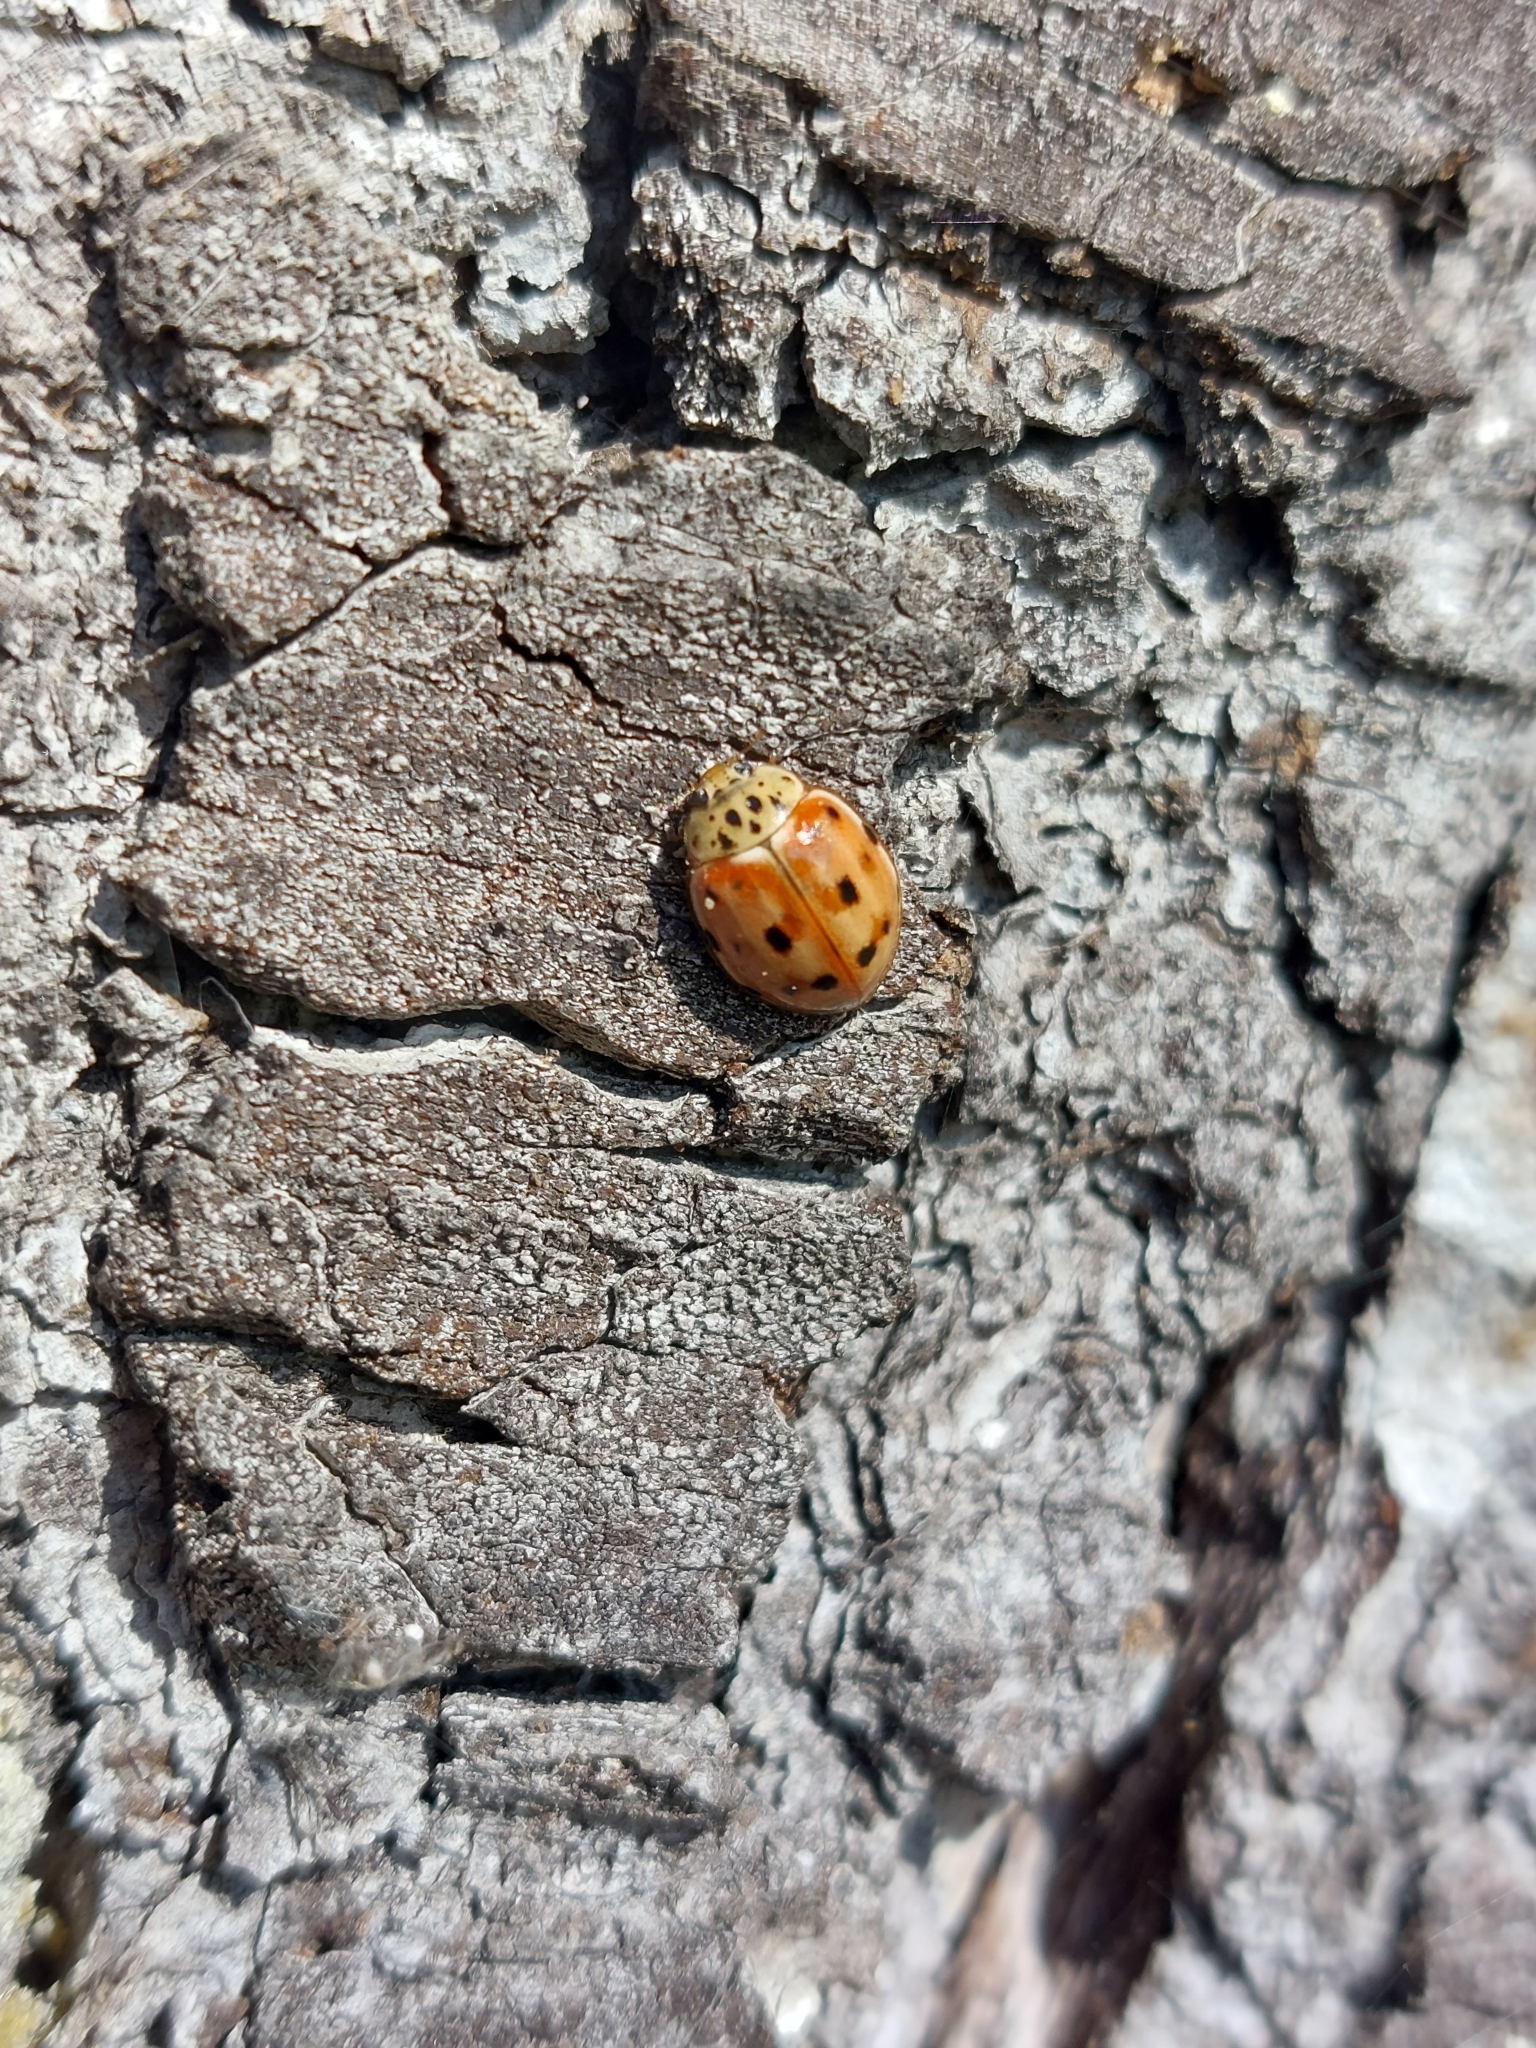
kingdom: Animalia
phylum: Arthropoda
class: Insecta
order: Coleoptera
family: Coccinellidae
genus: Harmonia
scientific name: Harmonia quadripunctata
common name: Cream-streaked ladybird
